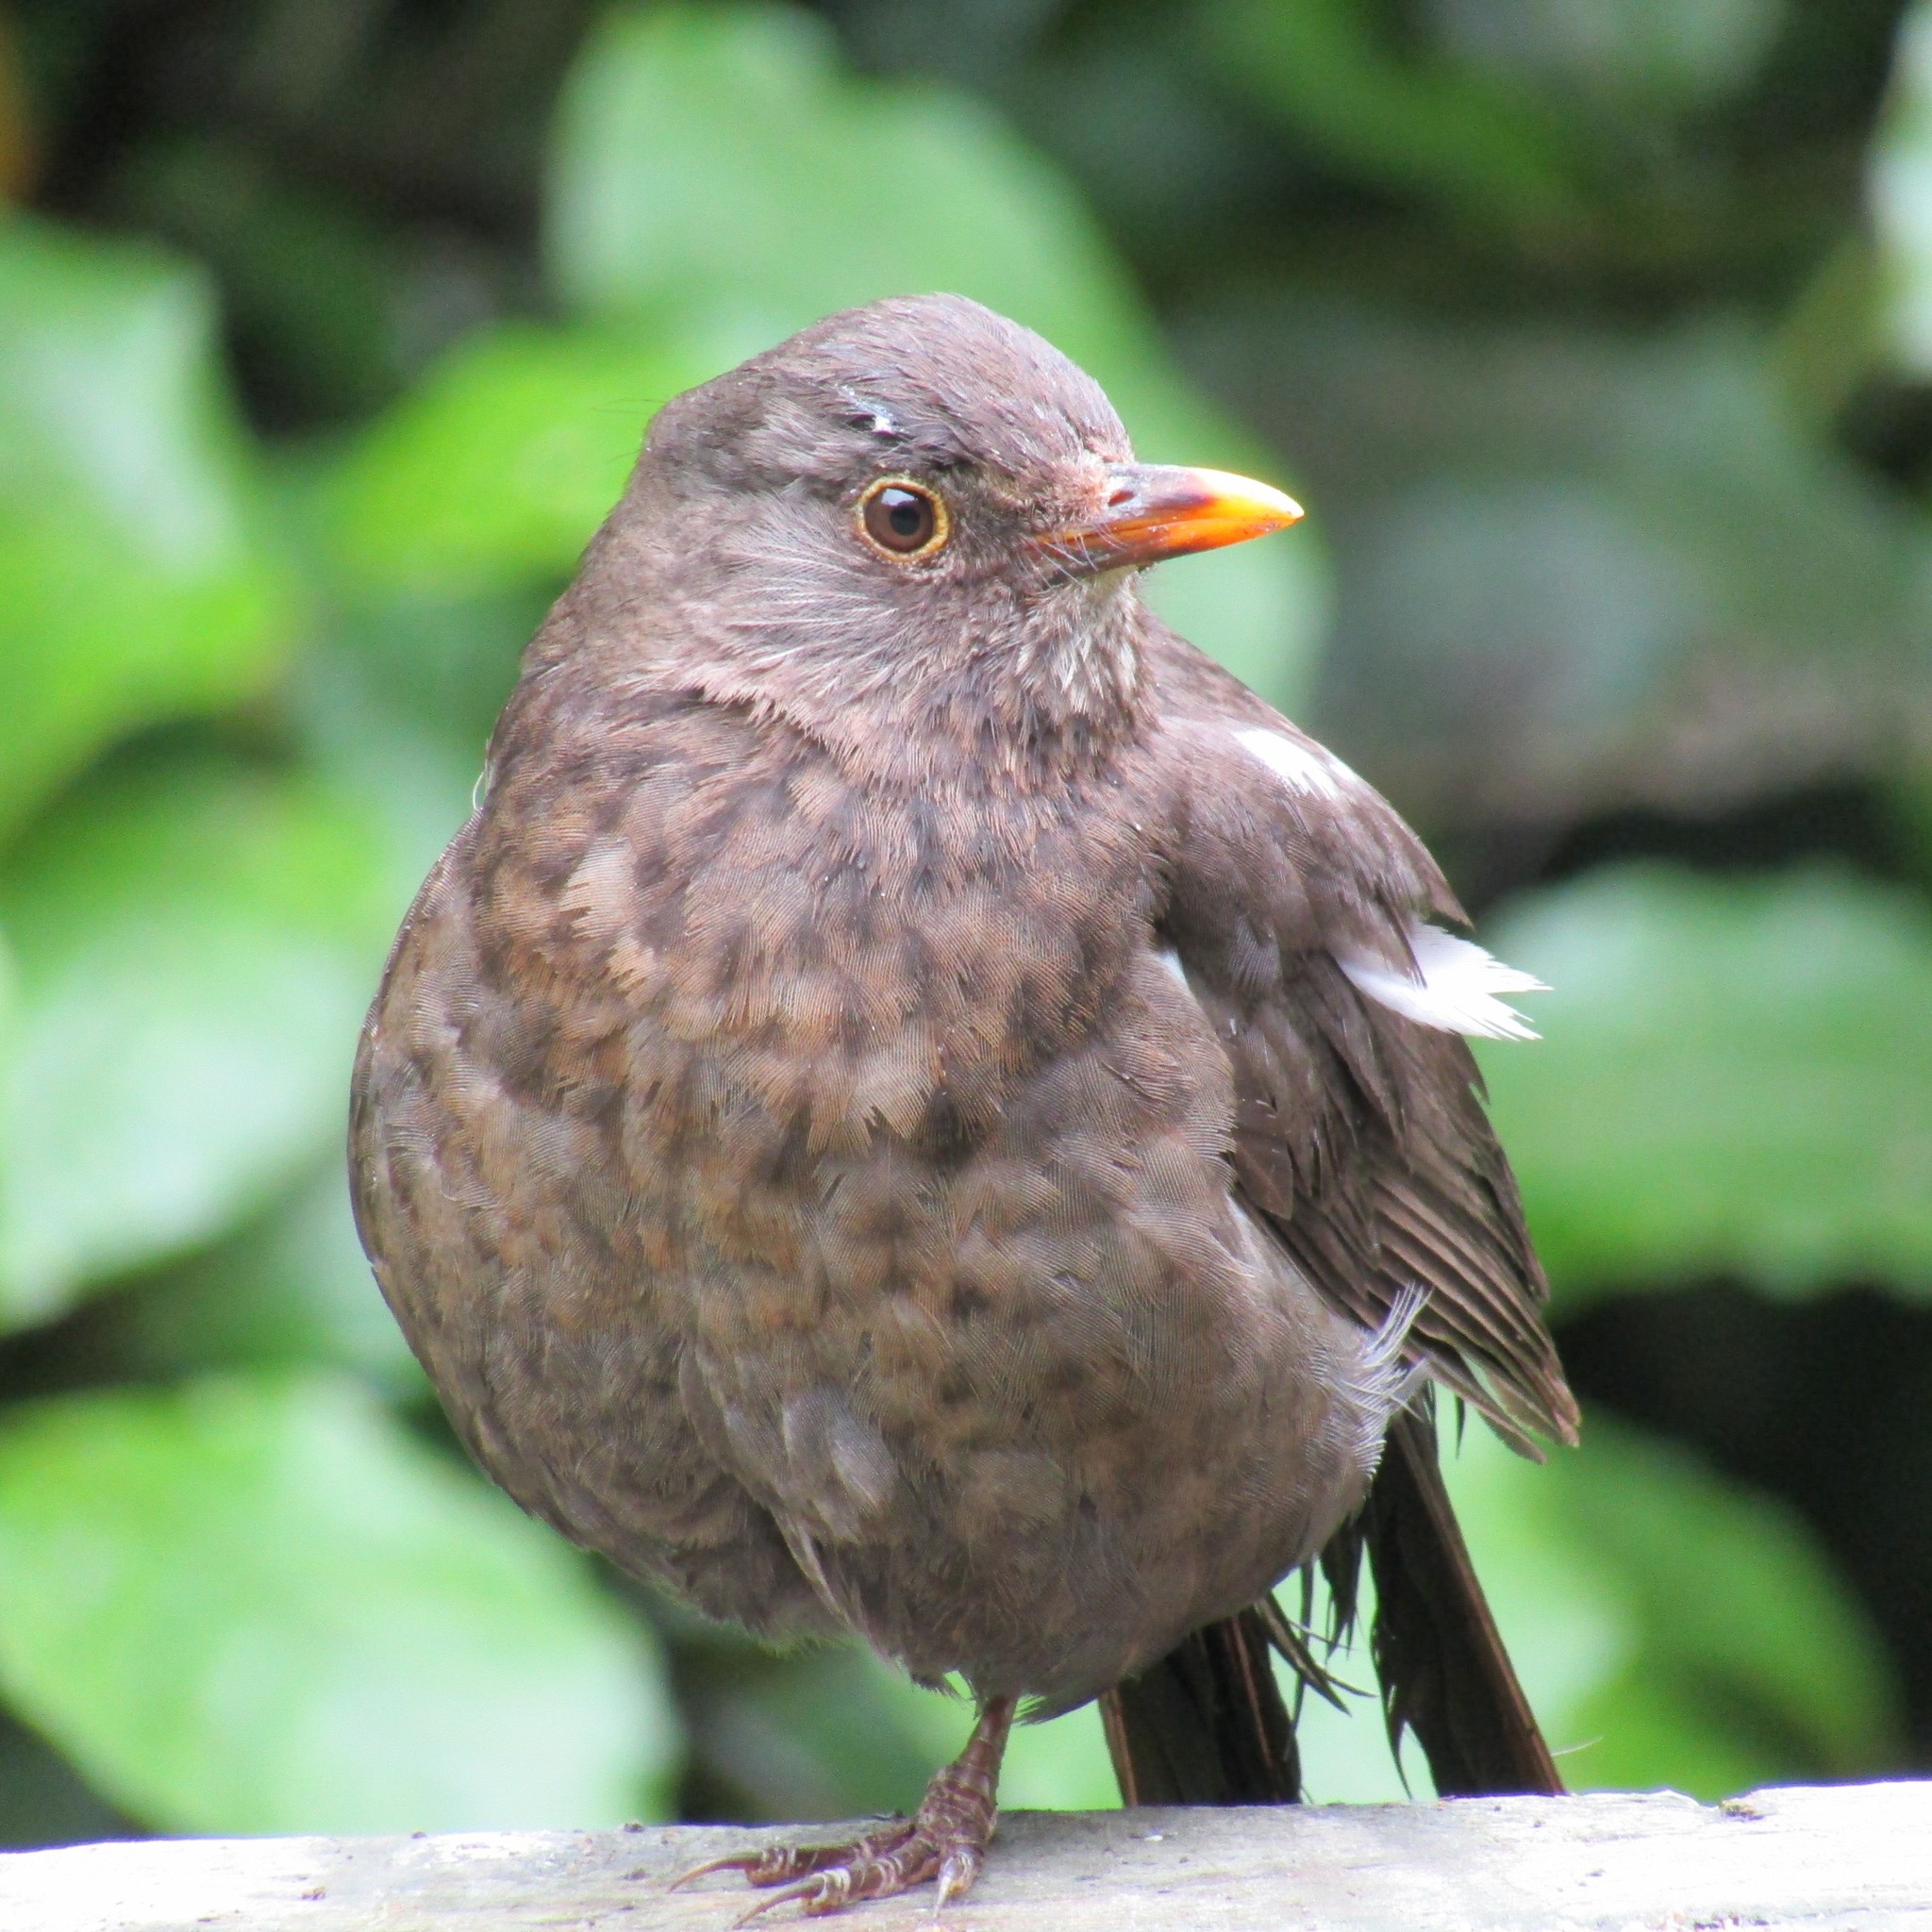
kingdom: Animalia
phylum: Chordata
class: Aves
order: Passeriformes
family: Turdidae
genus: Turdus
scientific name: Turdus merula
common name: Common blackbird
